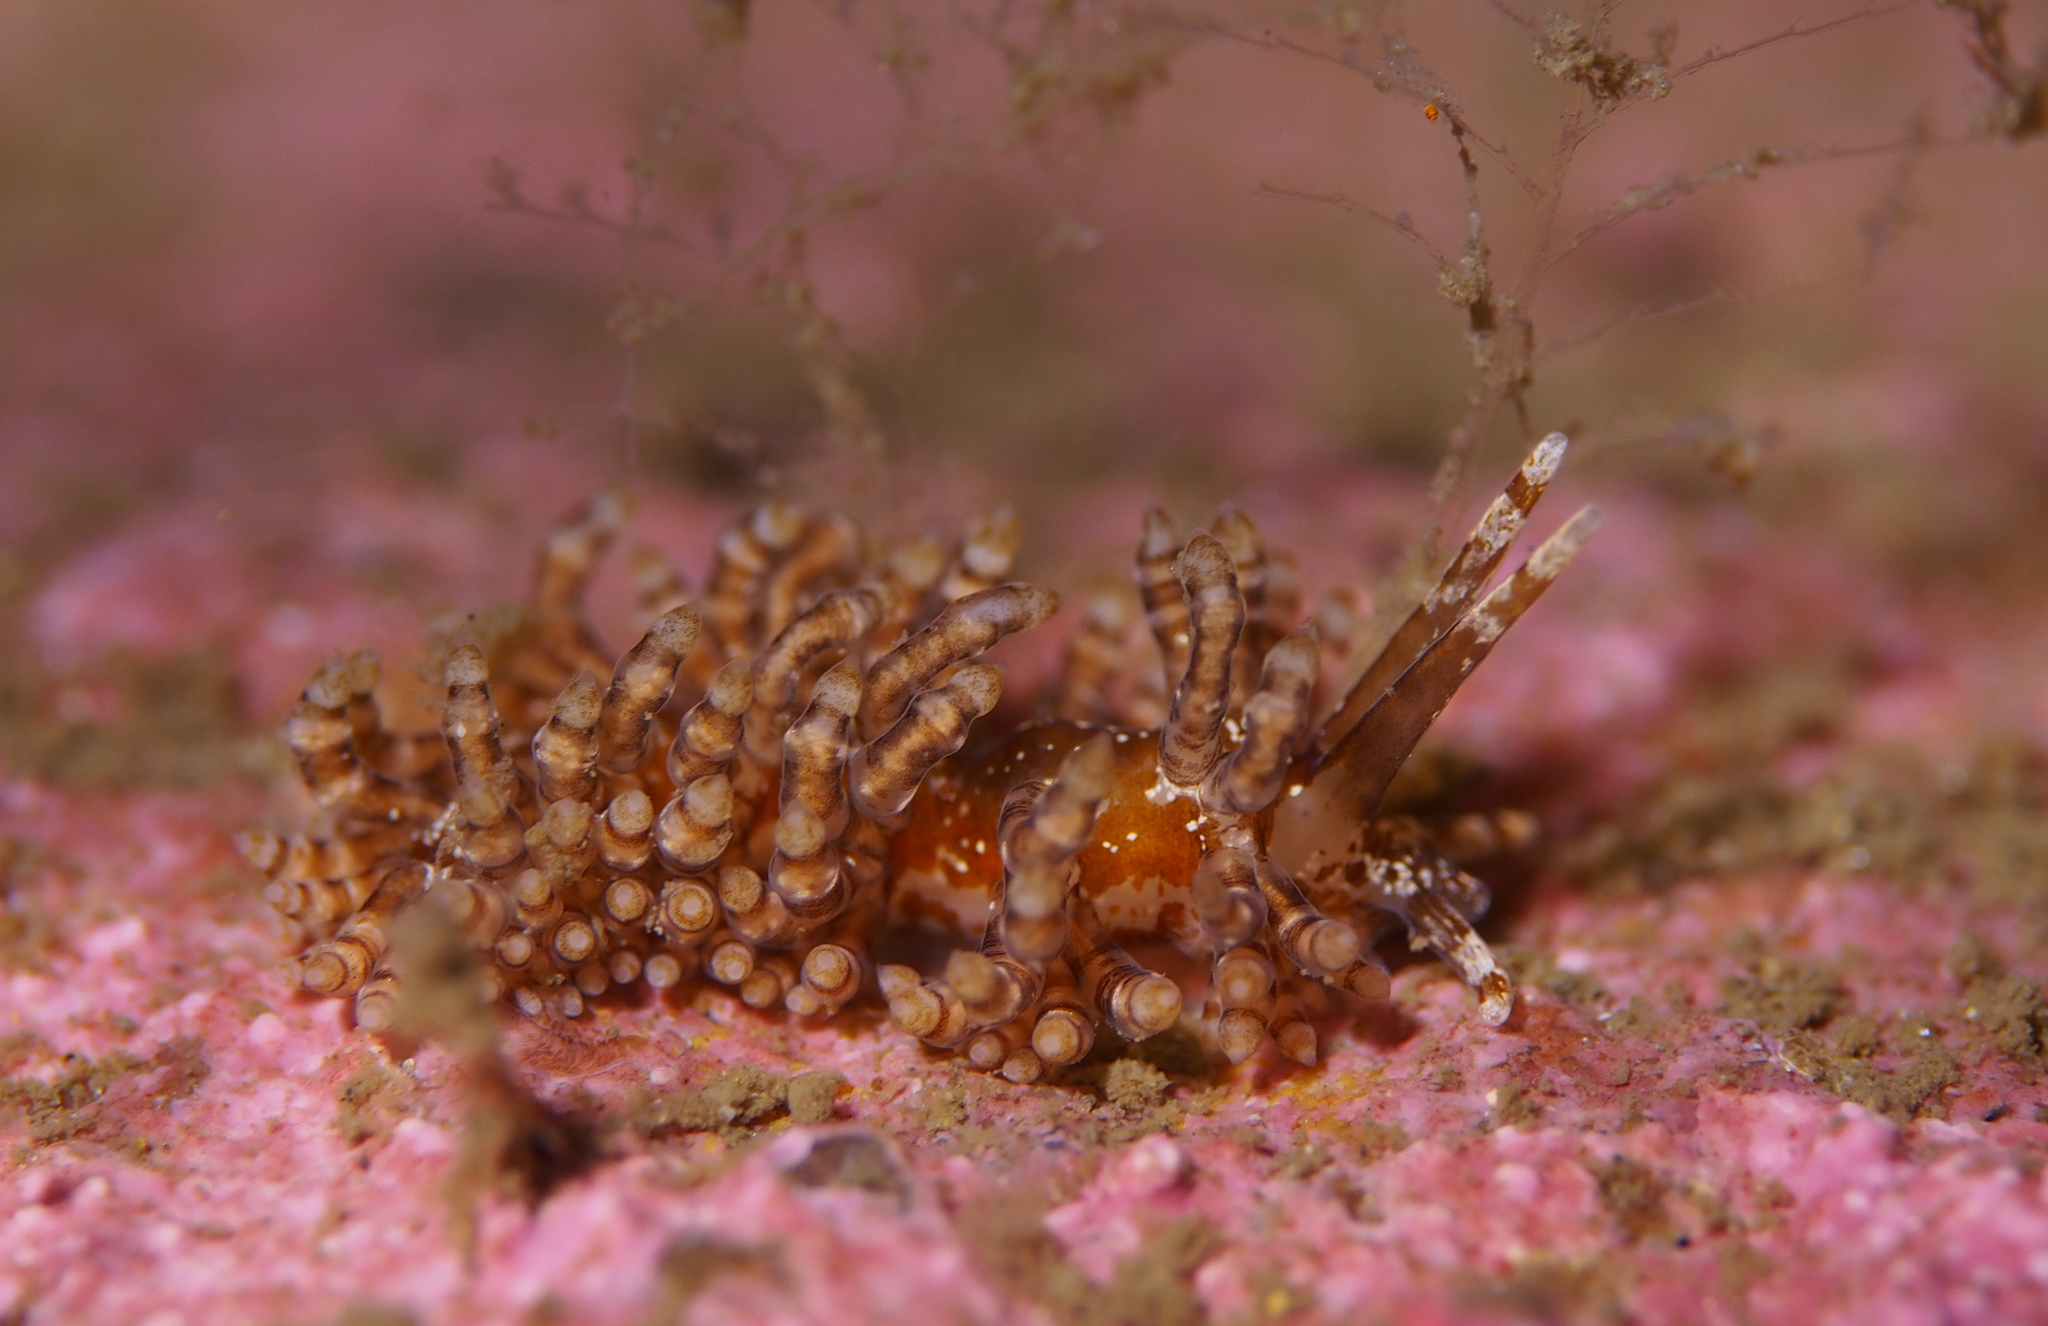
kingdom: Animalia
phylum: Mollusca
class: Gastropoda
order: Nudibranchia
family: Eubranchidae
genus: Eubranchus
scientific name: Eubranchus vittatus
